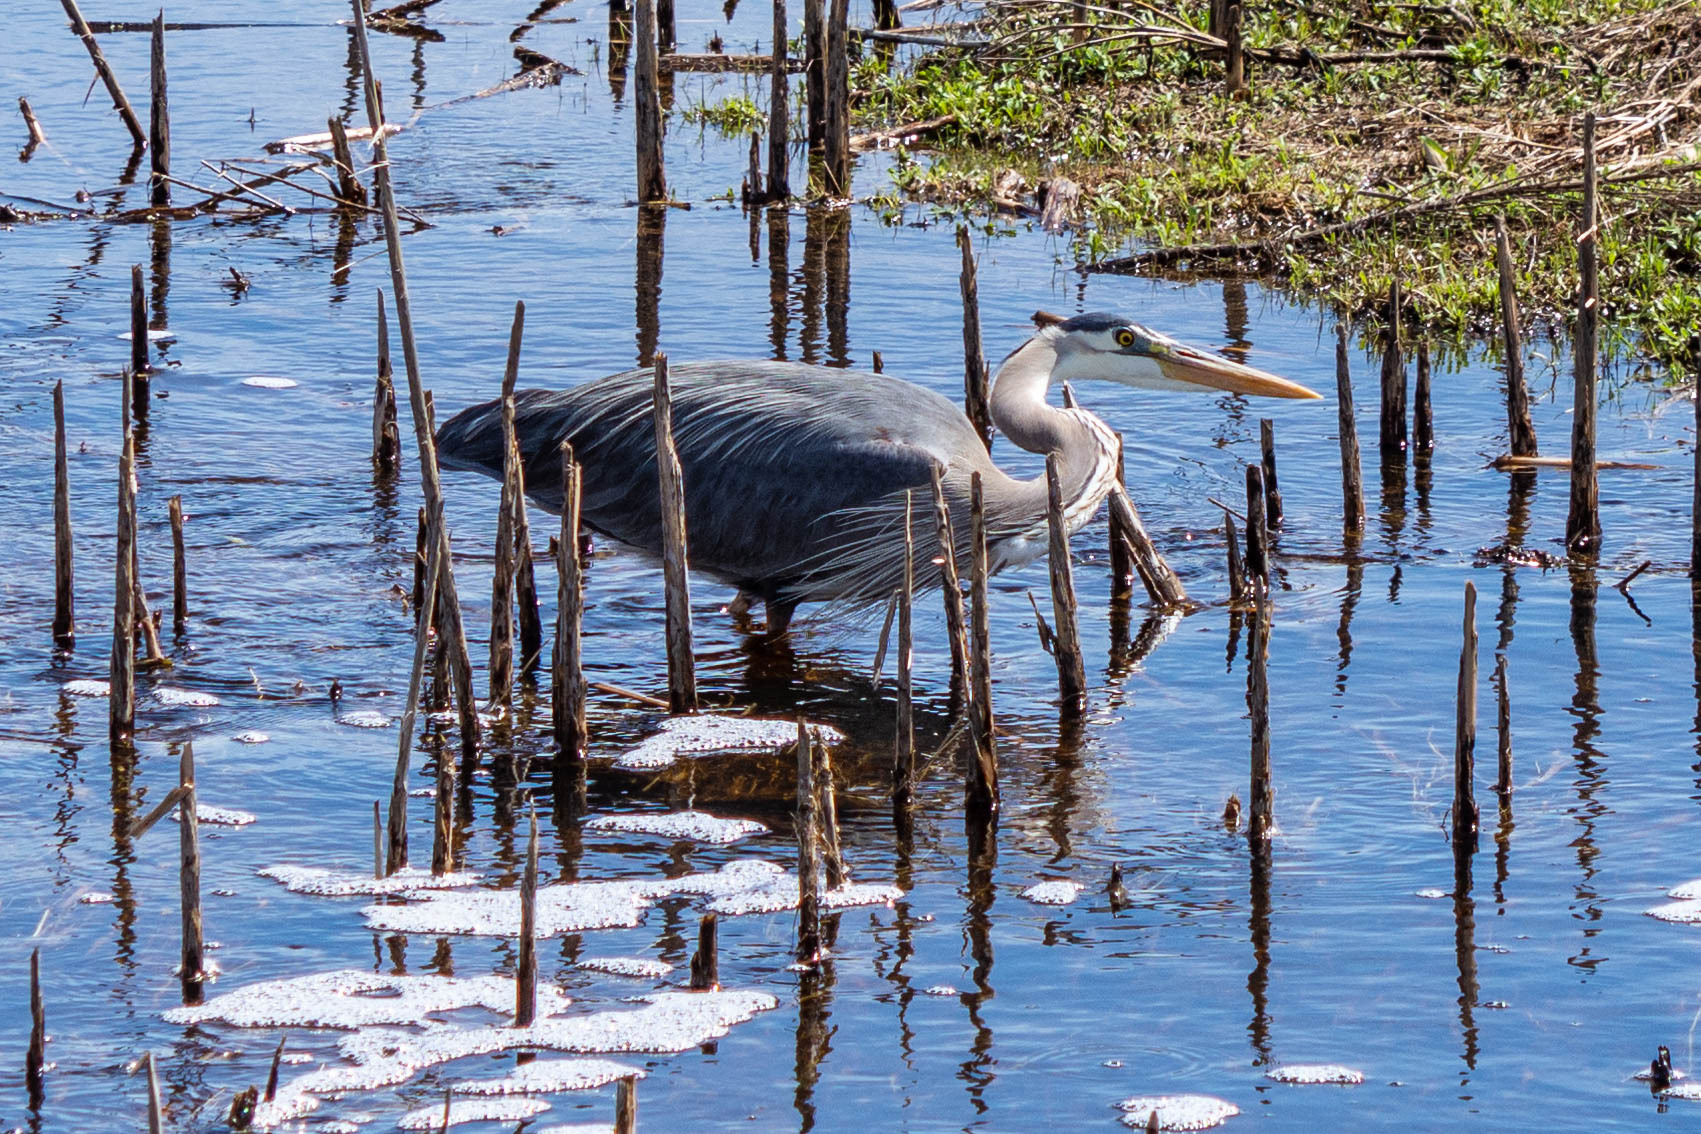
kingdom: Animalia
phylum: Chordata
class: Aves
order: Pelecaniformes
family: Ardeidae
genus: Ardea
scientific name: Ardea herodias
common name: Great blue heron
